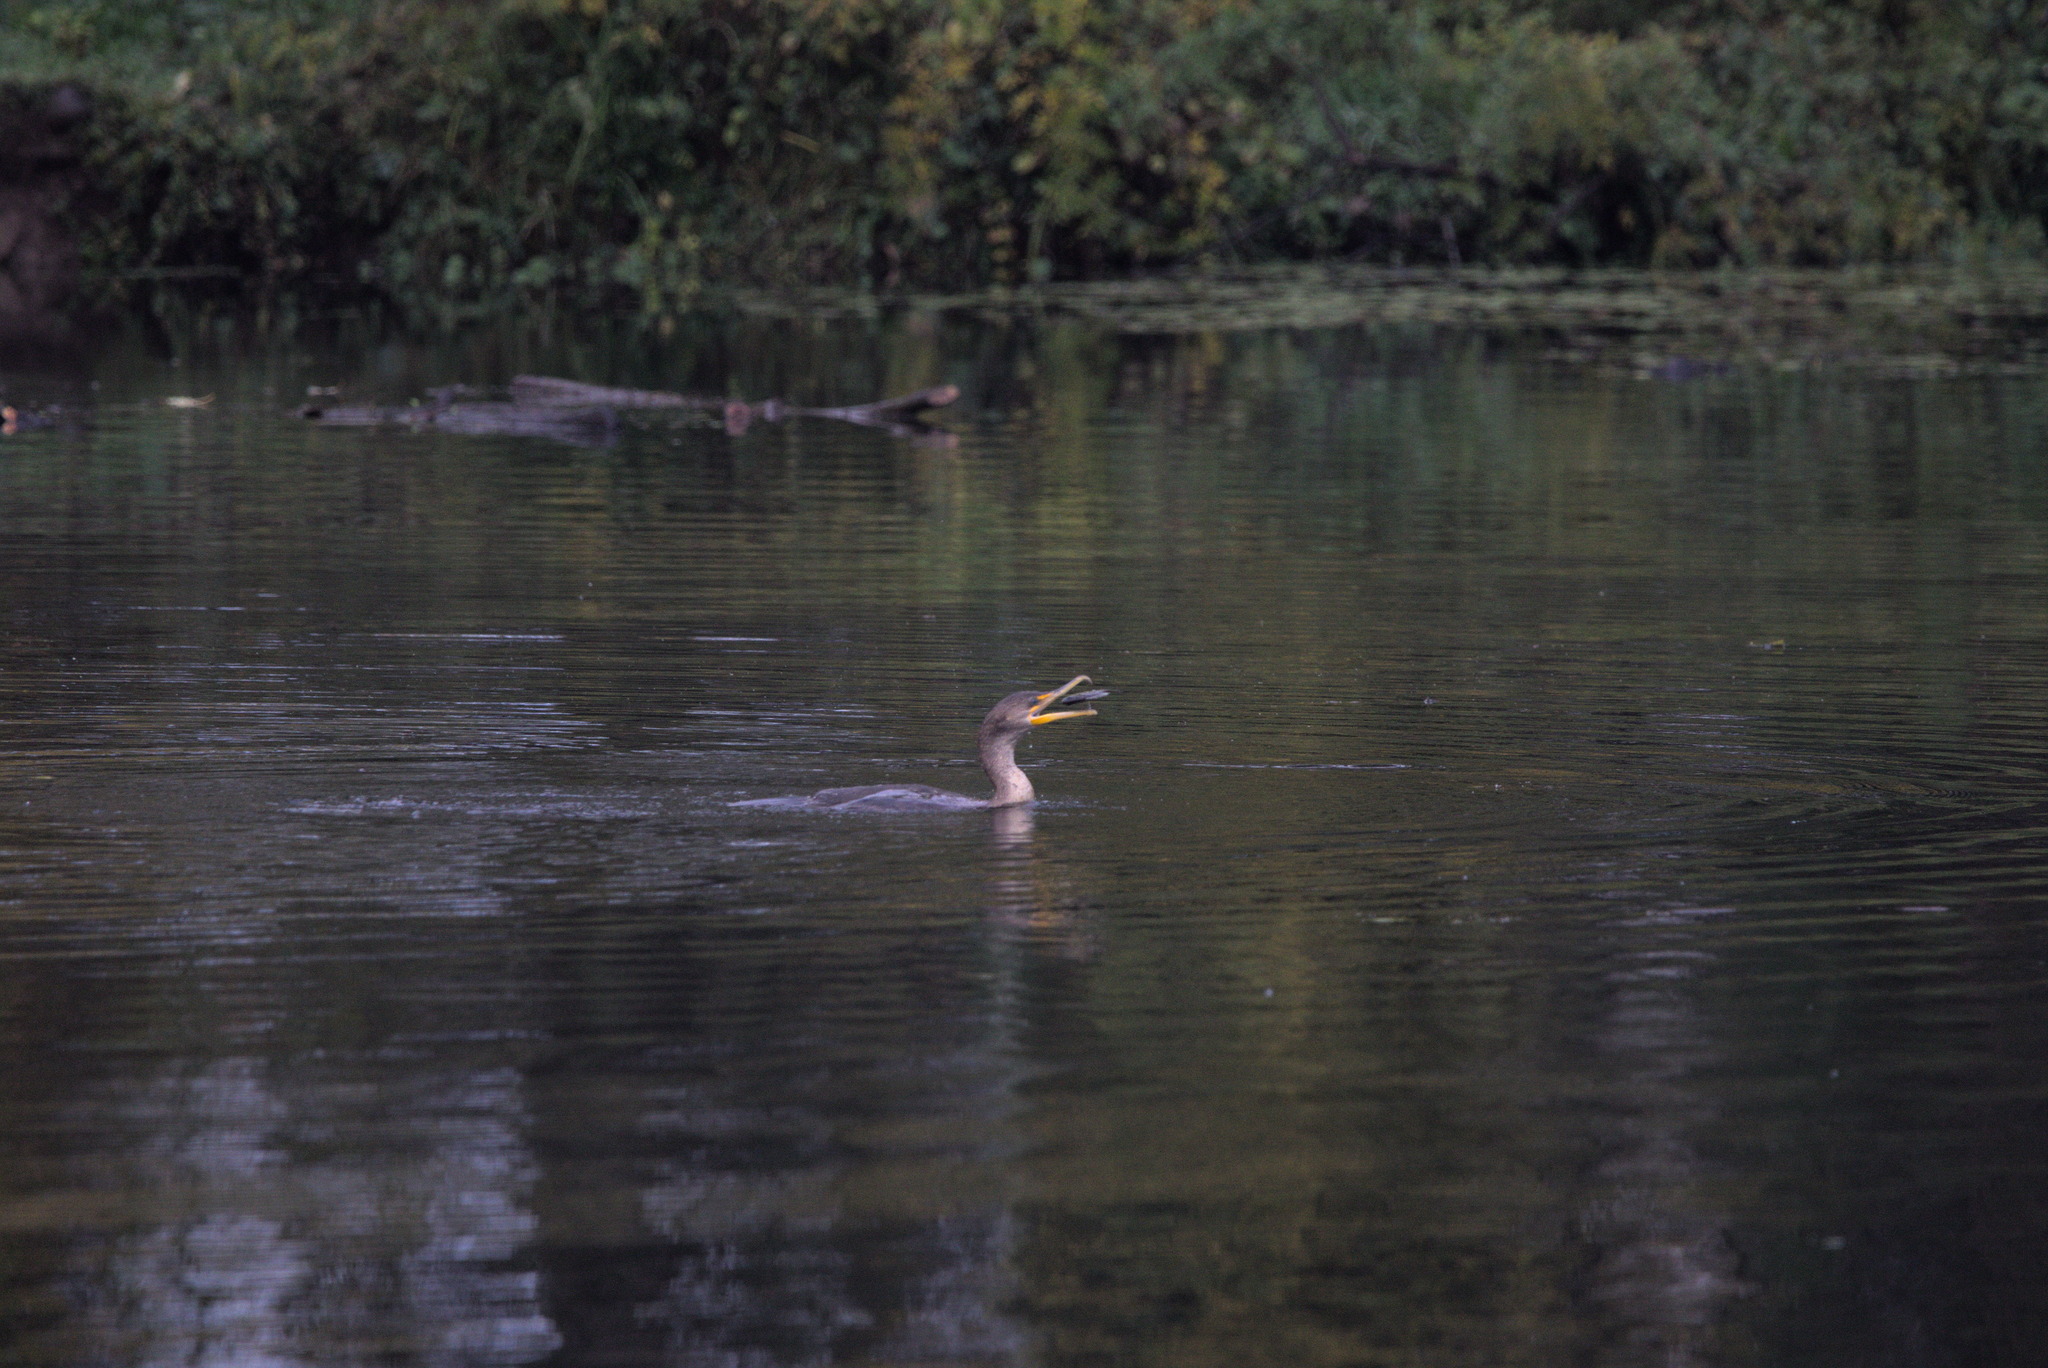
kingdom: Animalia
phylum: Chordata
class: Aves
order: Suliformes
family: Phalacrocoracidae
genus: Phalacrocorax
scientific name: Phalacrocorax auritus
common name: Double-crested cormorant
